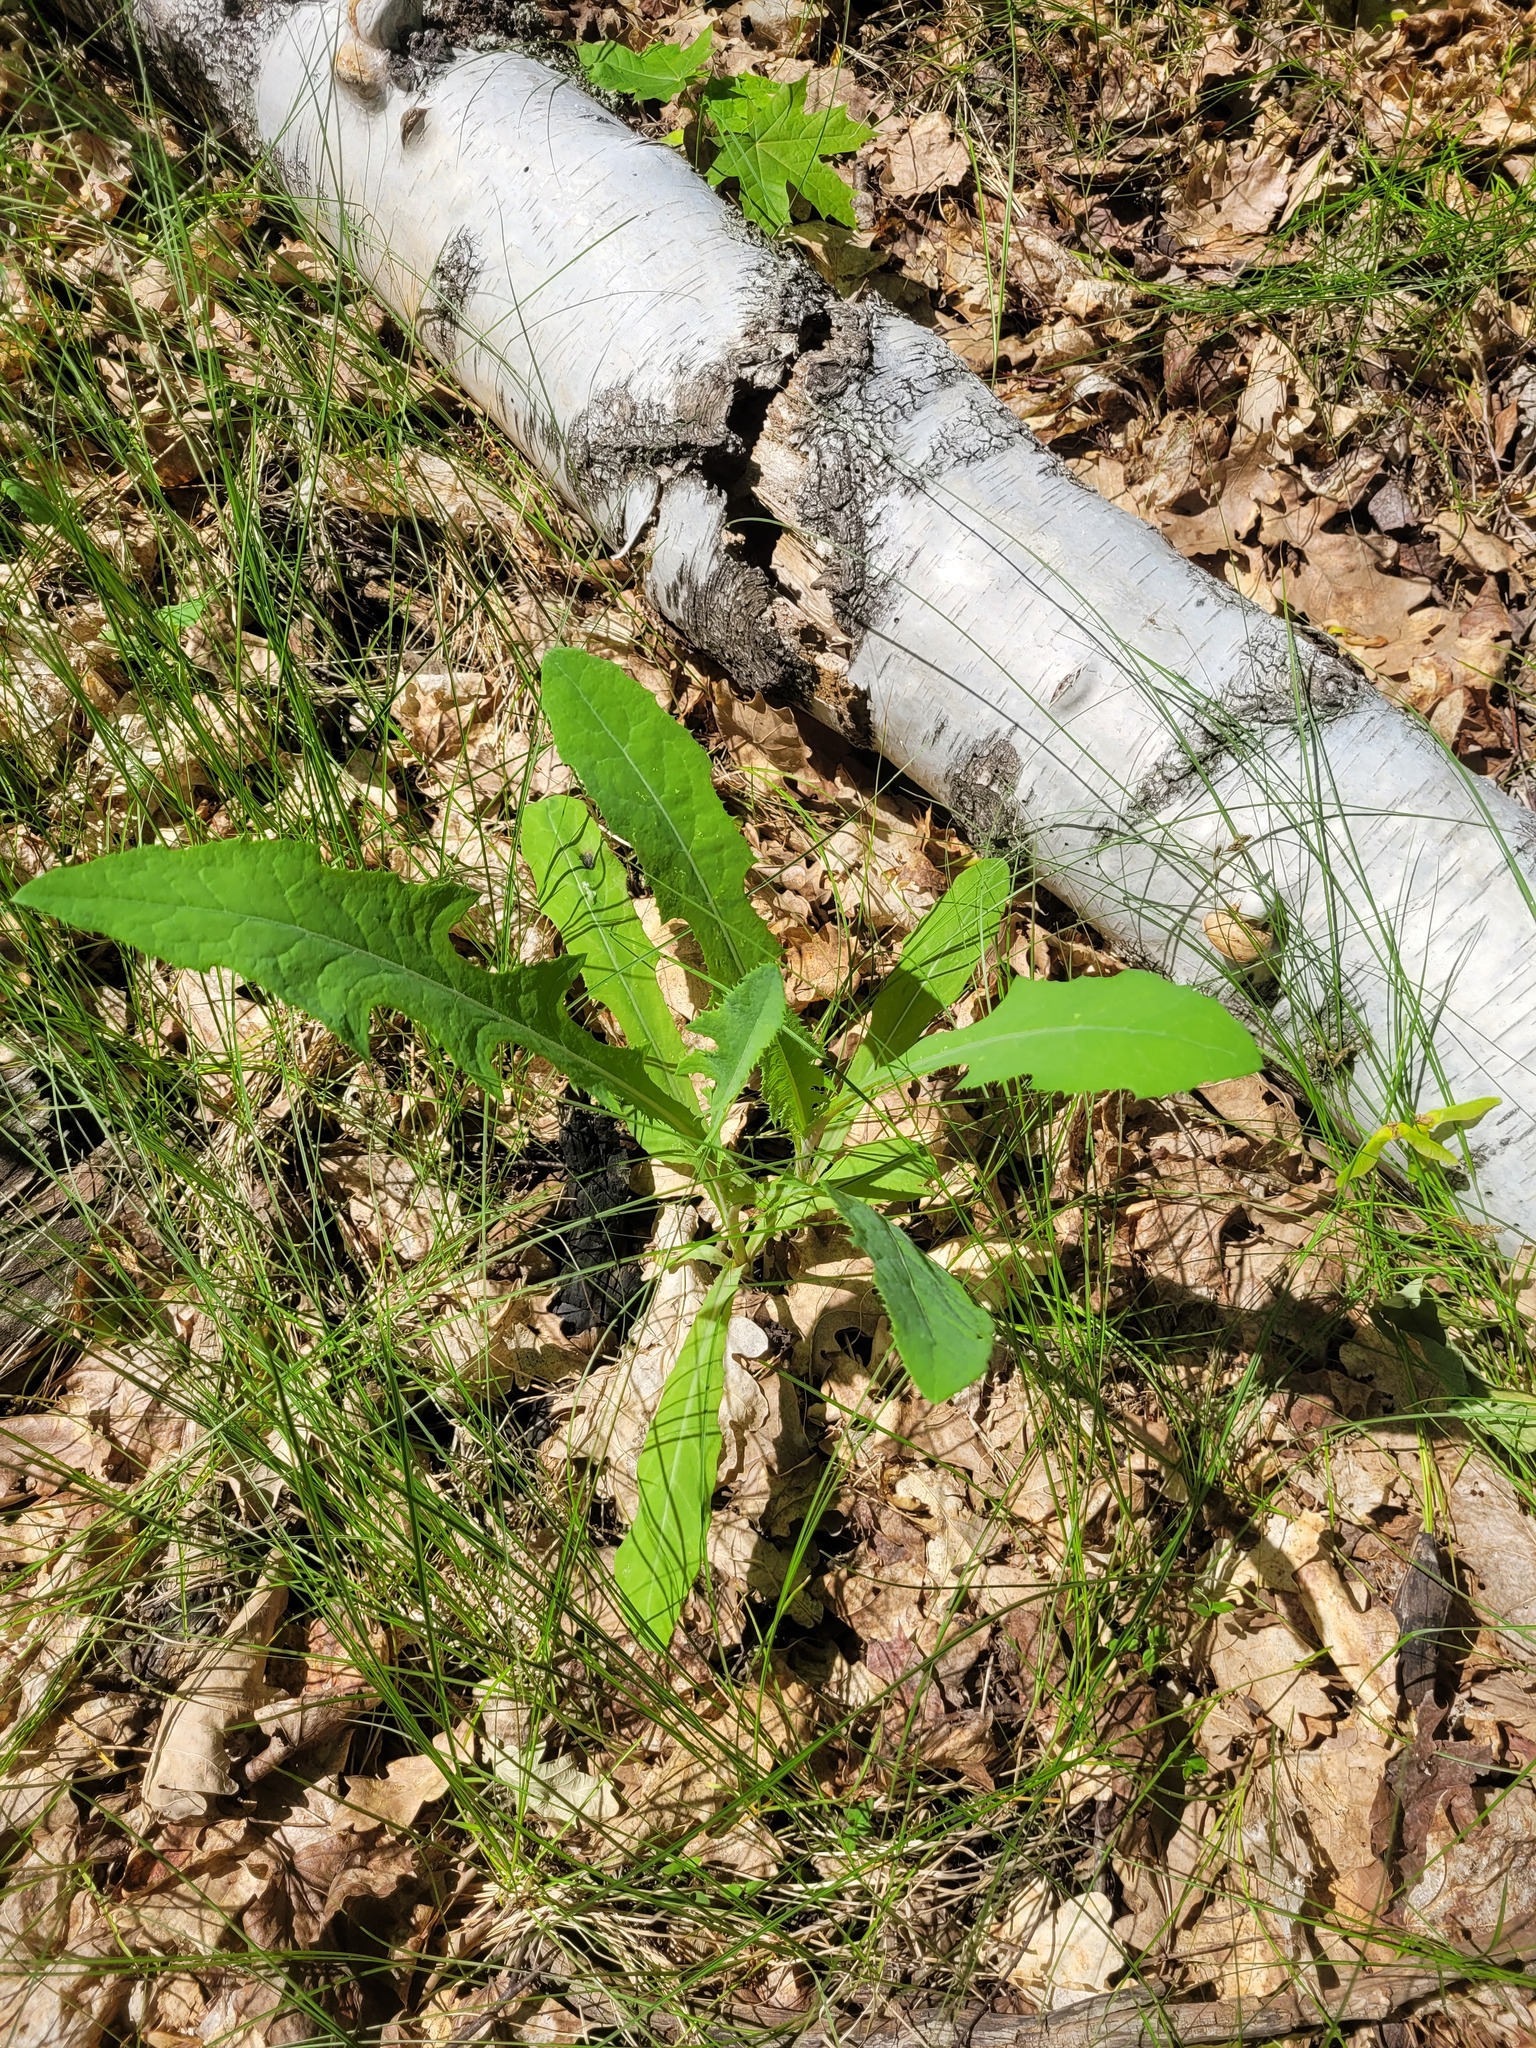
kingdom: Plantae
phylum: Tracheophyta
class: Magnoliopsida
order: Asterales
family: Asteraceae
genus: Sonchus
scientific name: Sonchus arvensis
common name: Perennial sow-thistle
